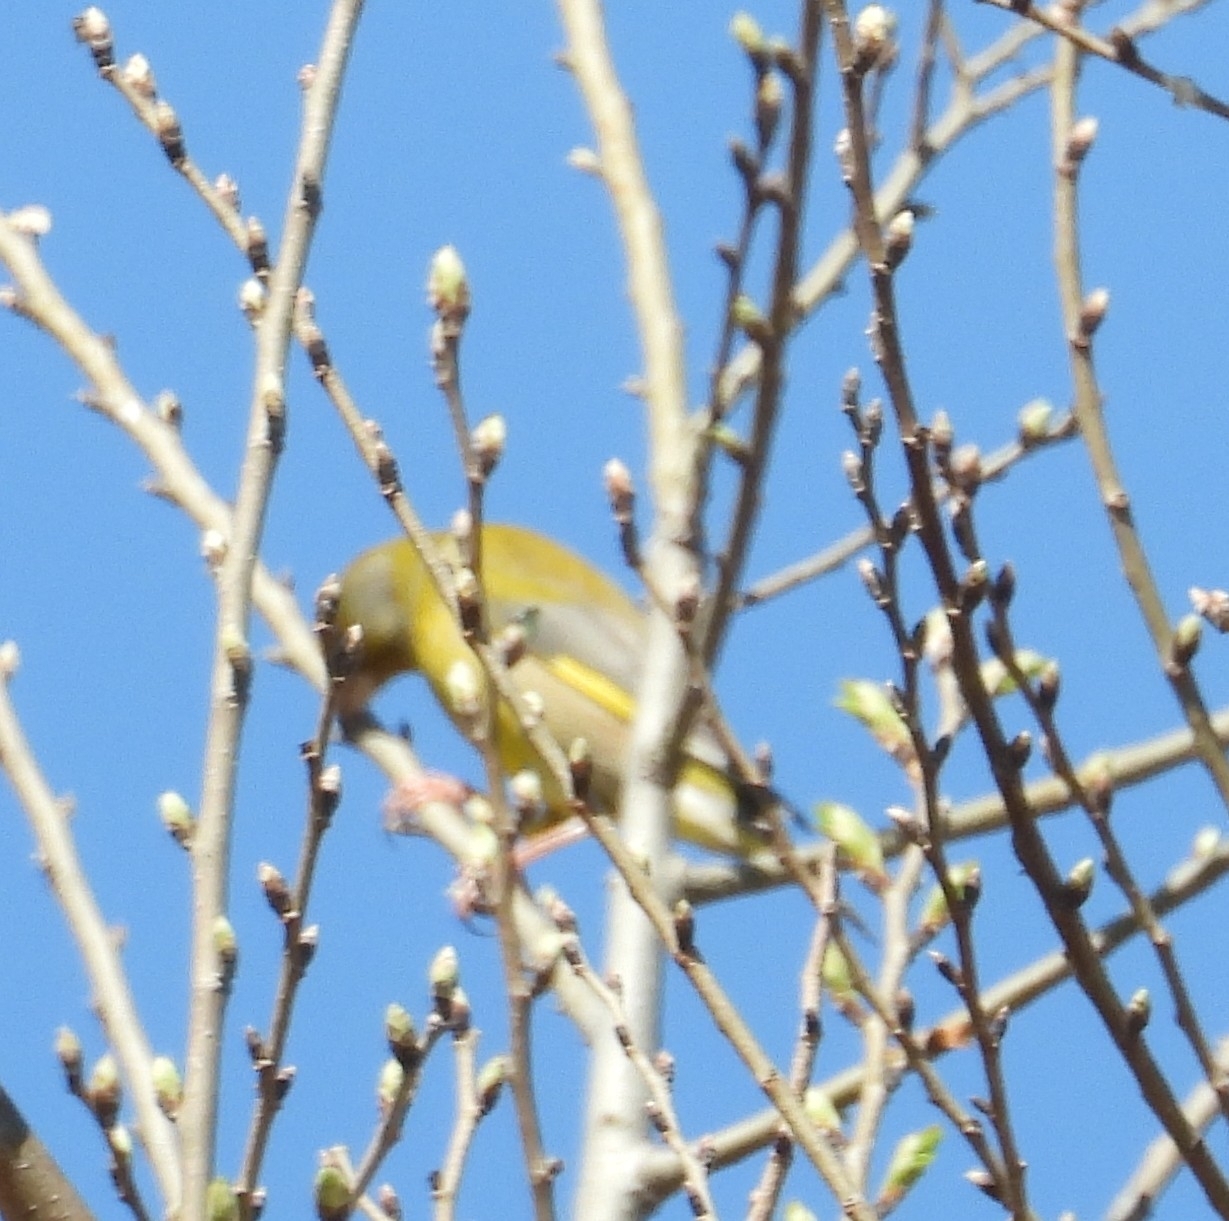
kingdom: Plantae
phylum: Tracheophyta
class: Liliopsida
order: Poales
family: Poaceae
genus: Chloris
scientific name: Chloris chloris
